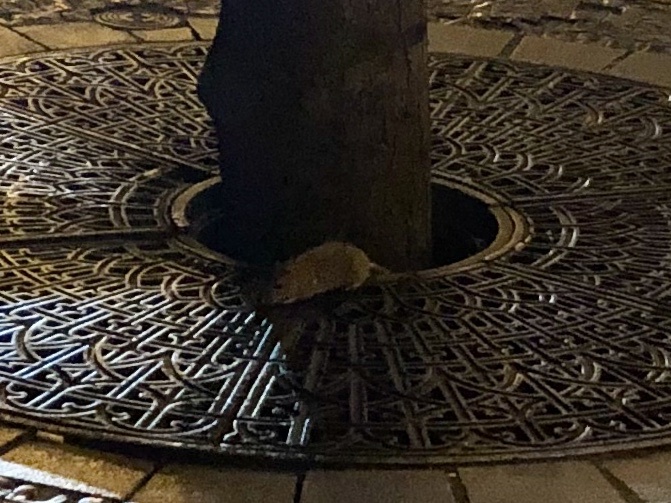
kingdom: Animalia
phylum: Chordata
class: Mammalia
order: Rodentia
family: Muridae
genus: Rattus
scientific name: Rattus norvegicus
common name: Brown rat
